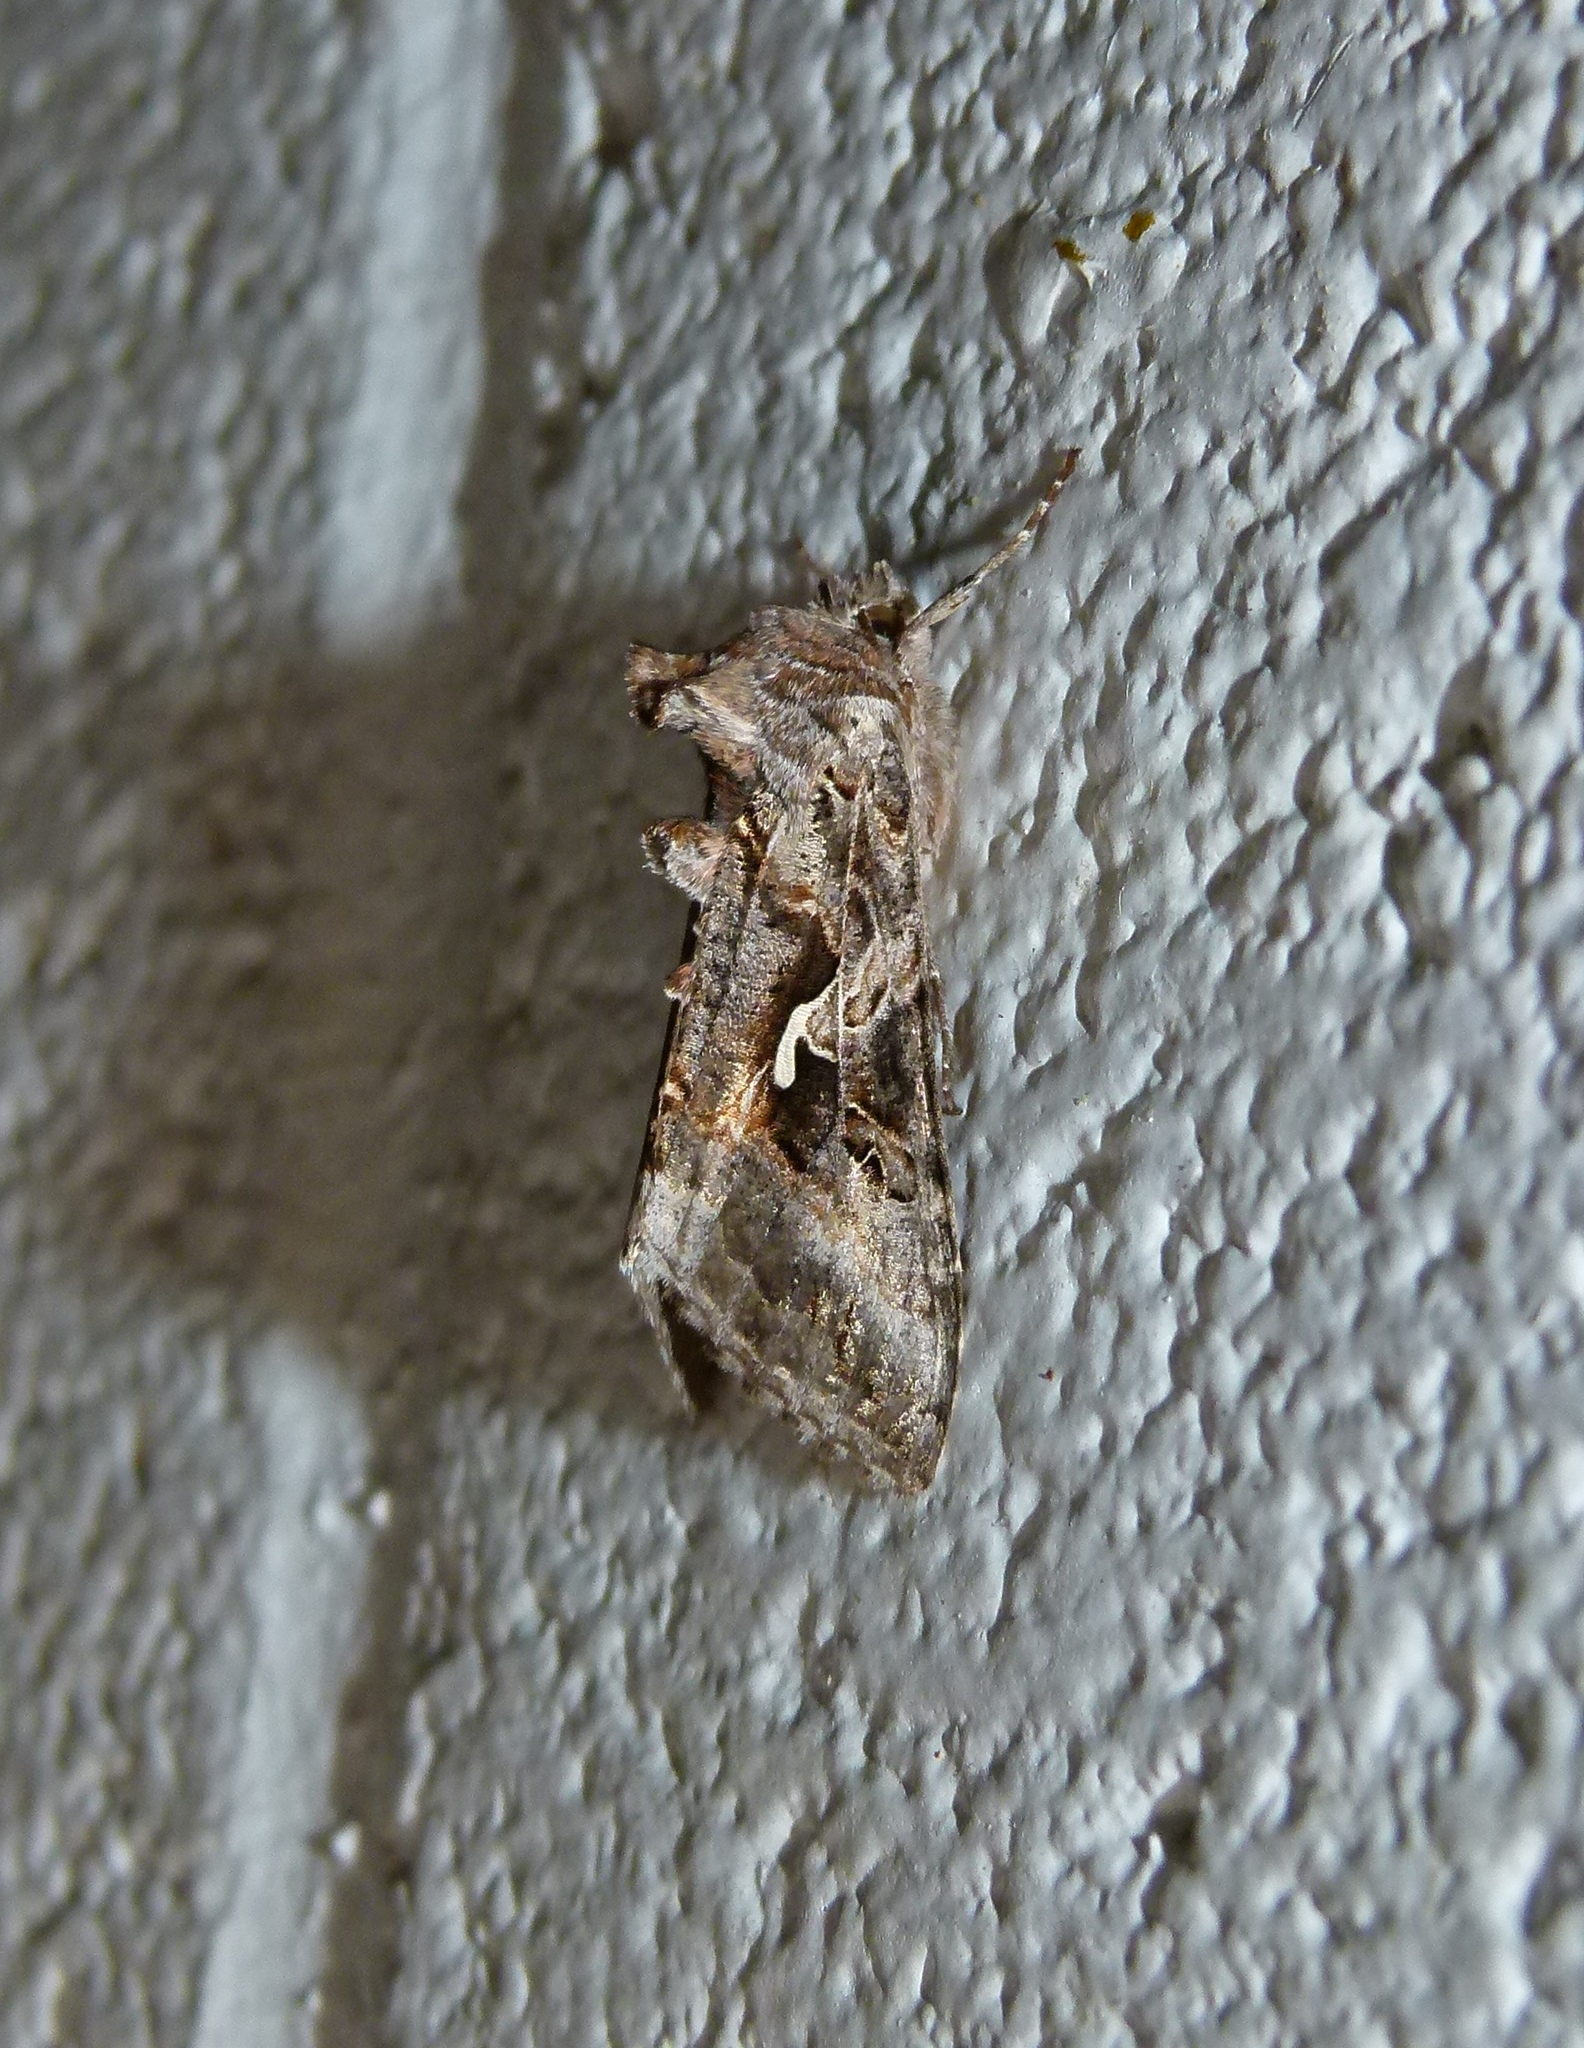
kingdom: Animalia
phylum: Arthropoda
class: Insecta
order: Lepidoptera
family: Noctuidae
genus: Autographa
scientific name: Autographa californica
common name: Alfalfa looper
